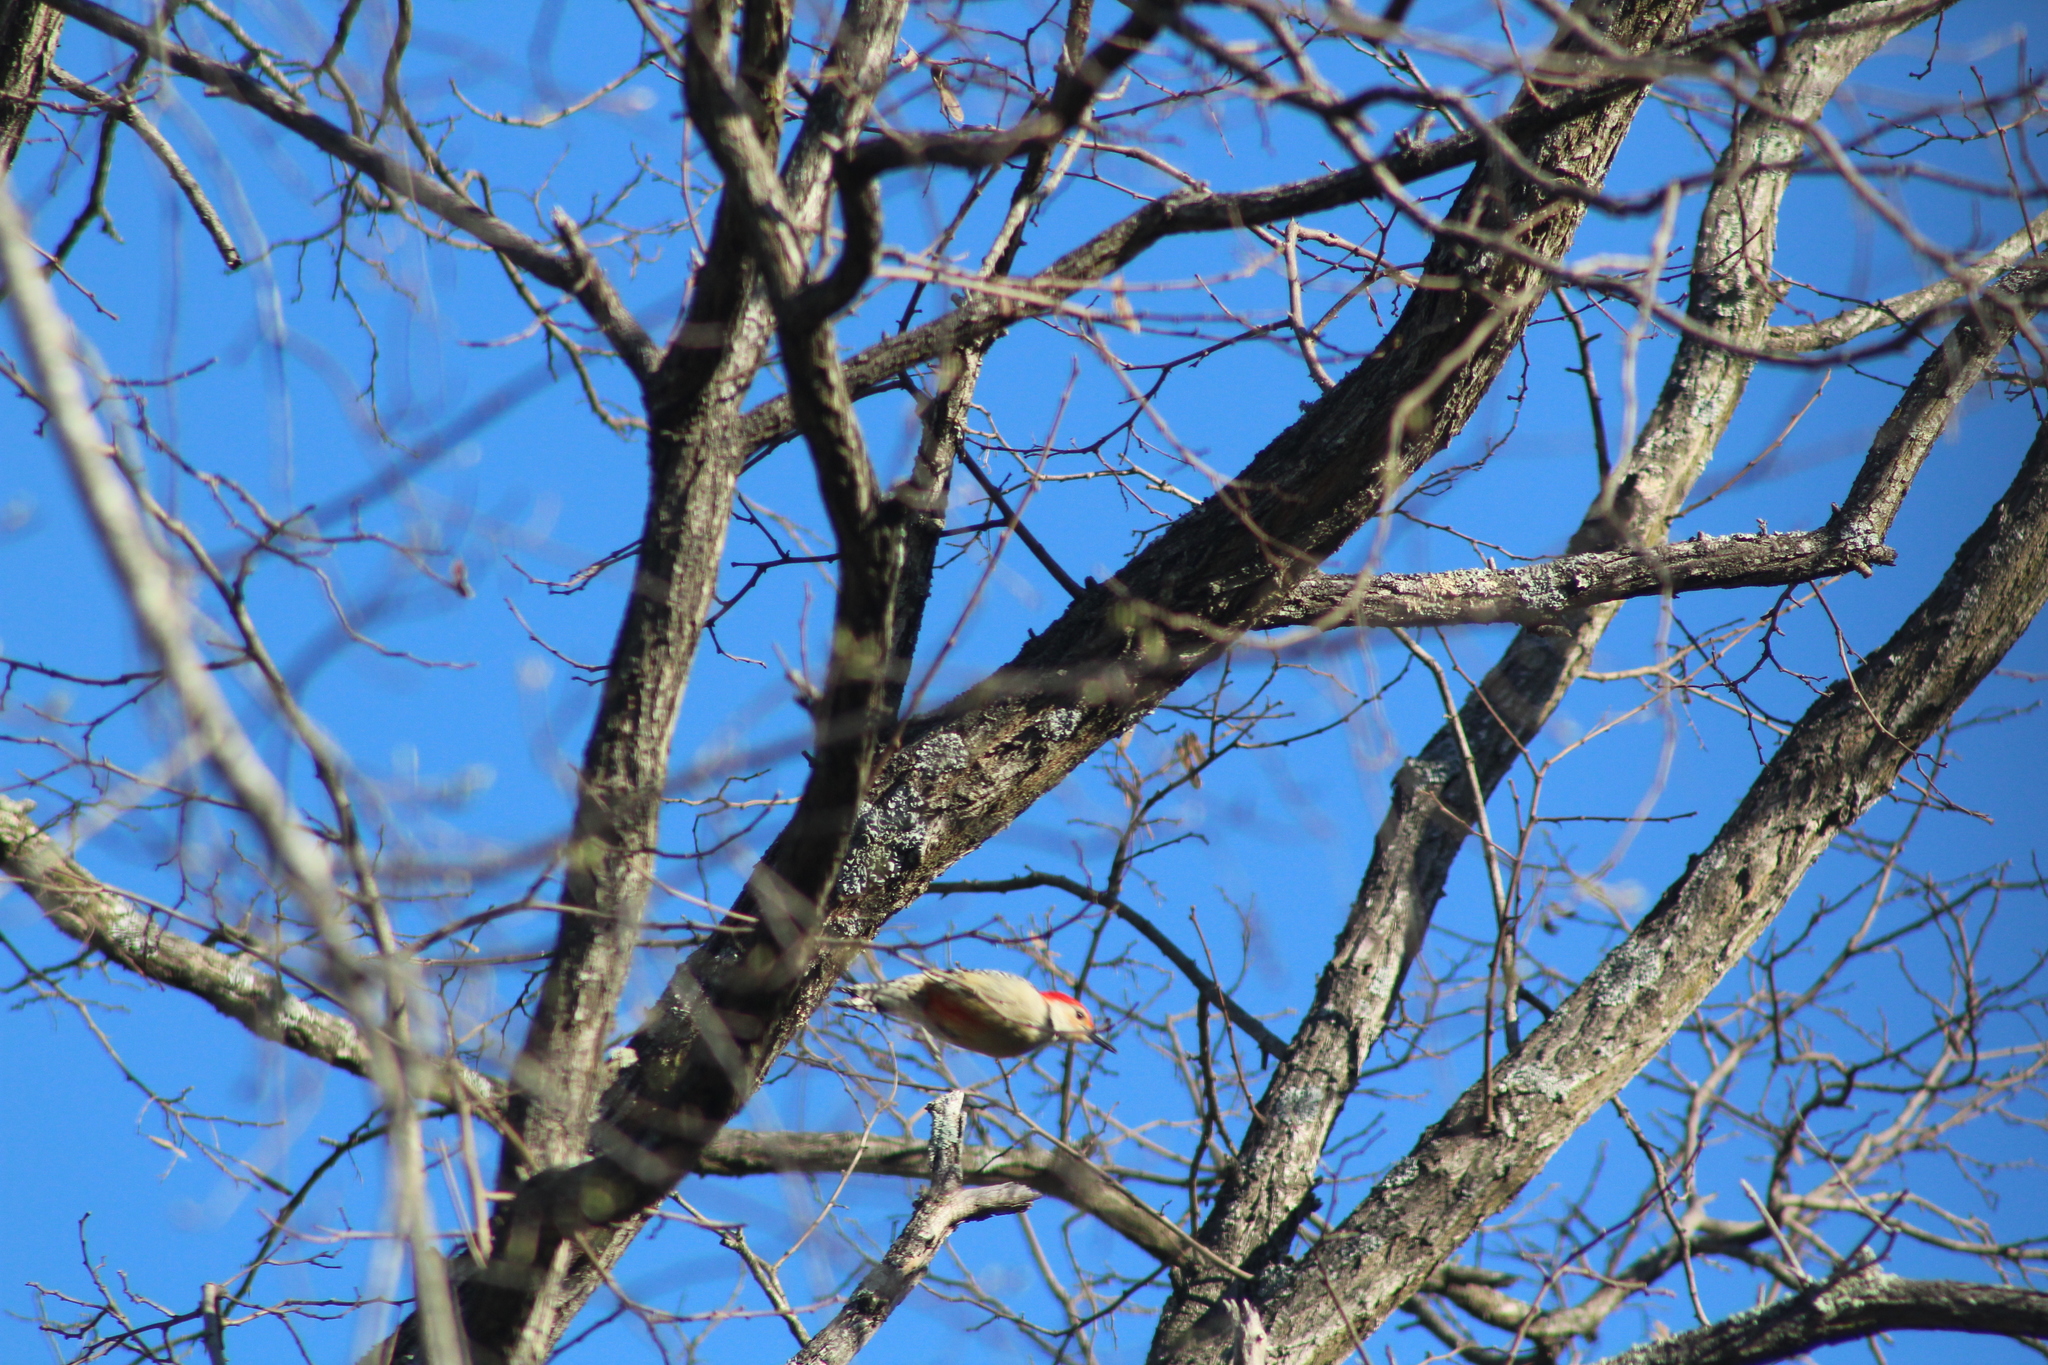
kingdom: Animalia
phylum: Chordata
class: Aves
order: Piciformes
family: Picidae
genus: Melanerpes
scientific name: Melanerpes carolinus
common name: Red-bellied woodpecker
